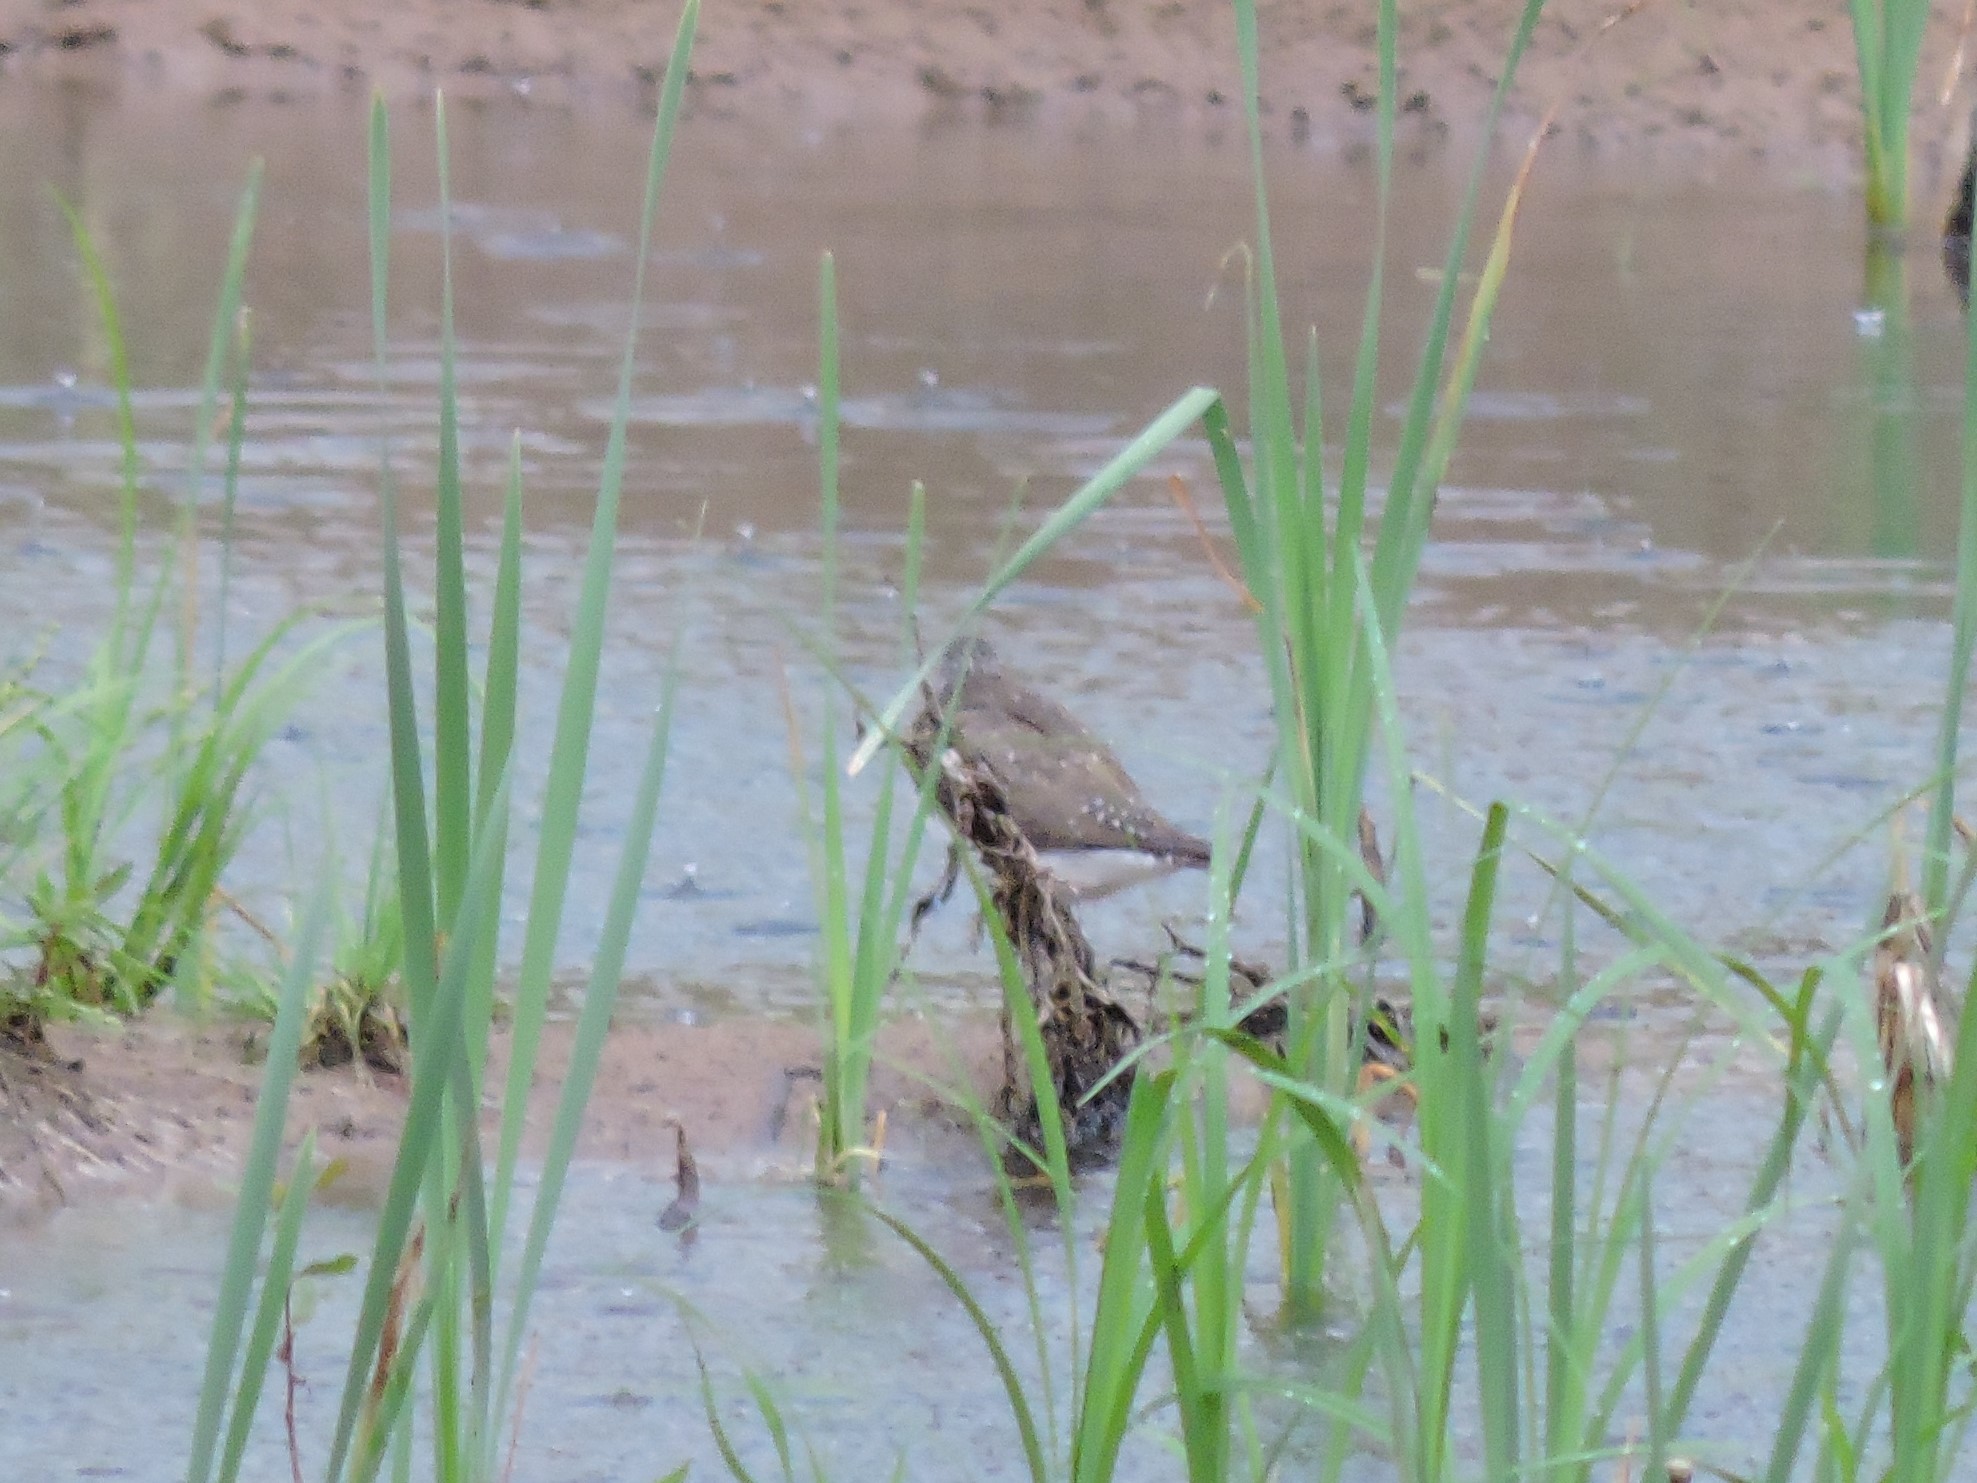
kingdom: Animalia
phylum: Chordata
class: Aves
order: Charadriiformes
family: Scolopacidae
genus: Tringa
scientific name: Tringa ochropus
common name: Green sandpiper
